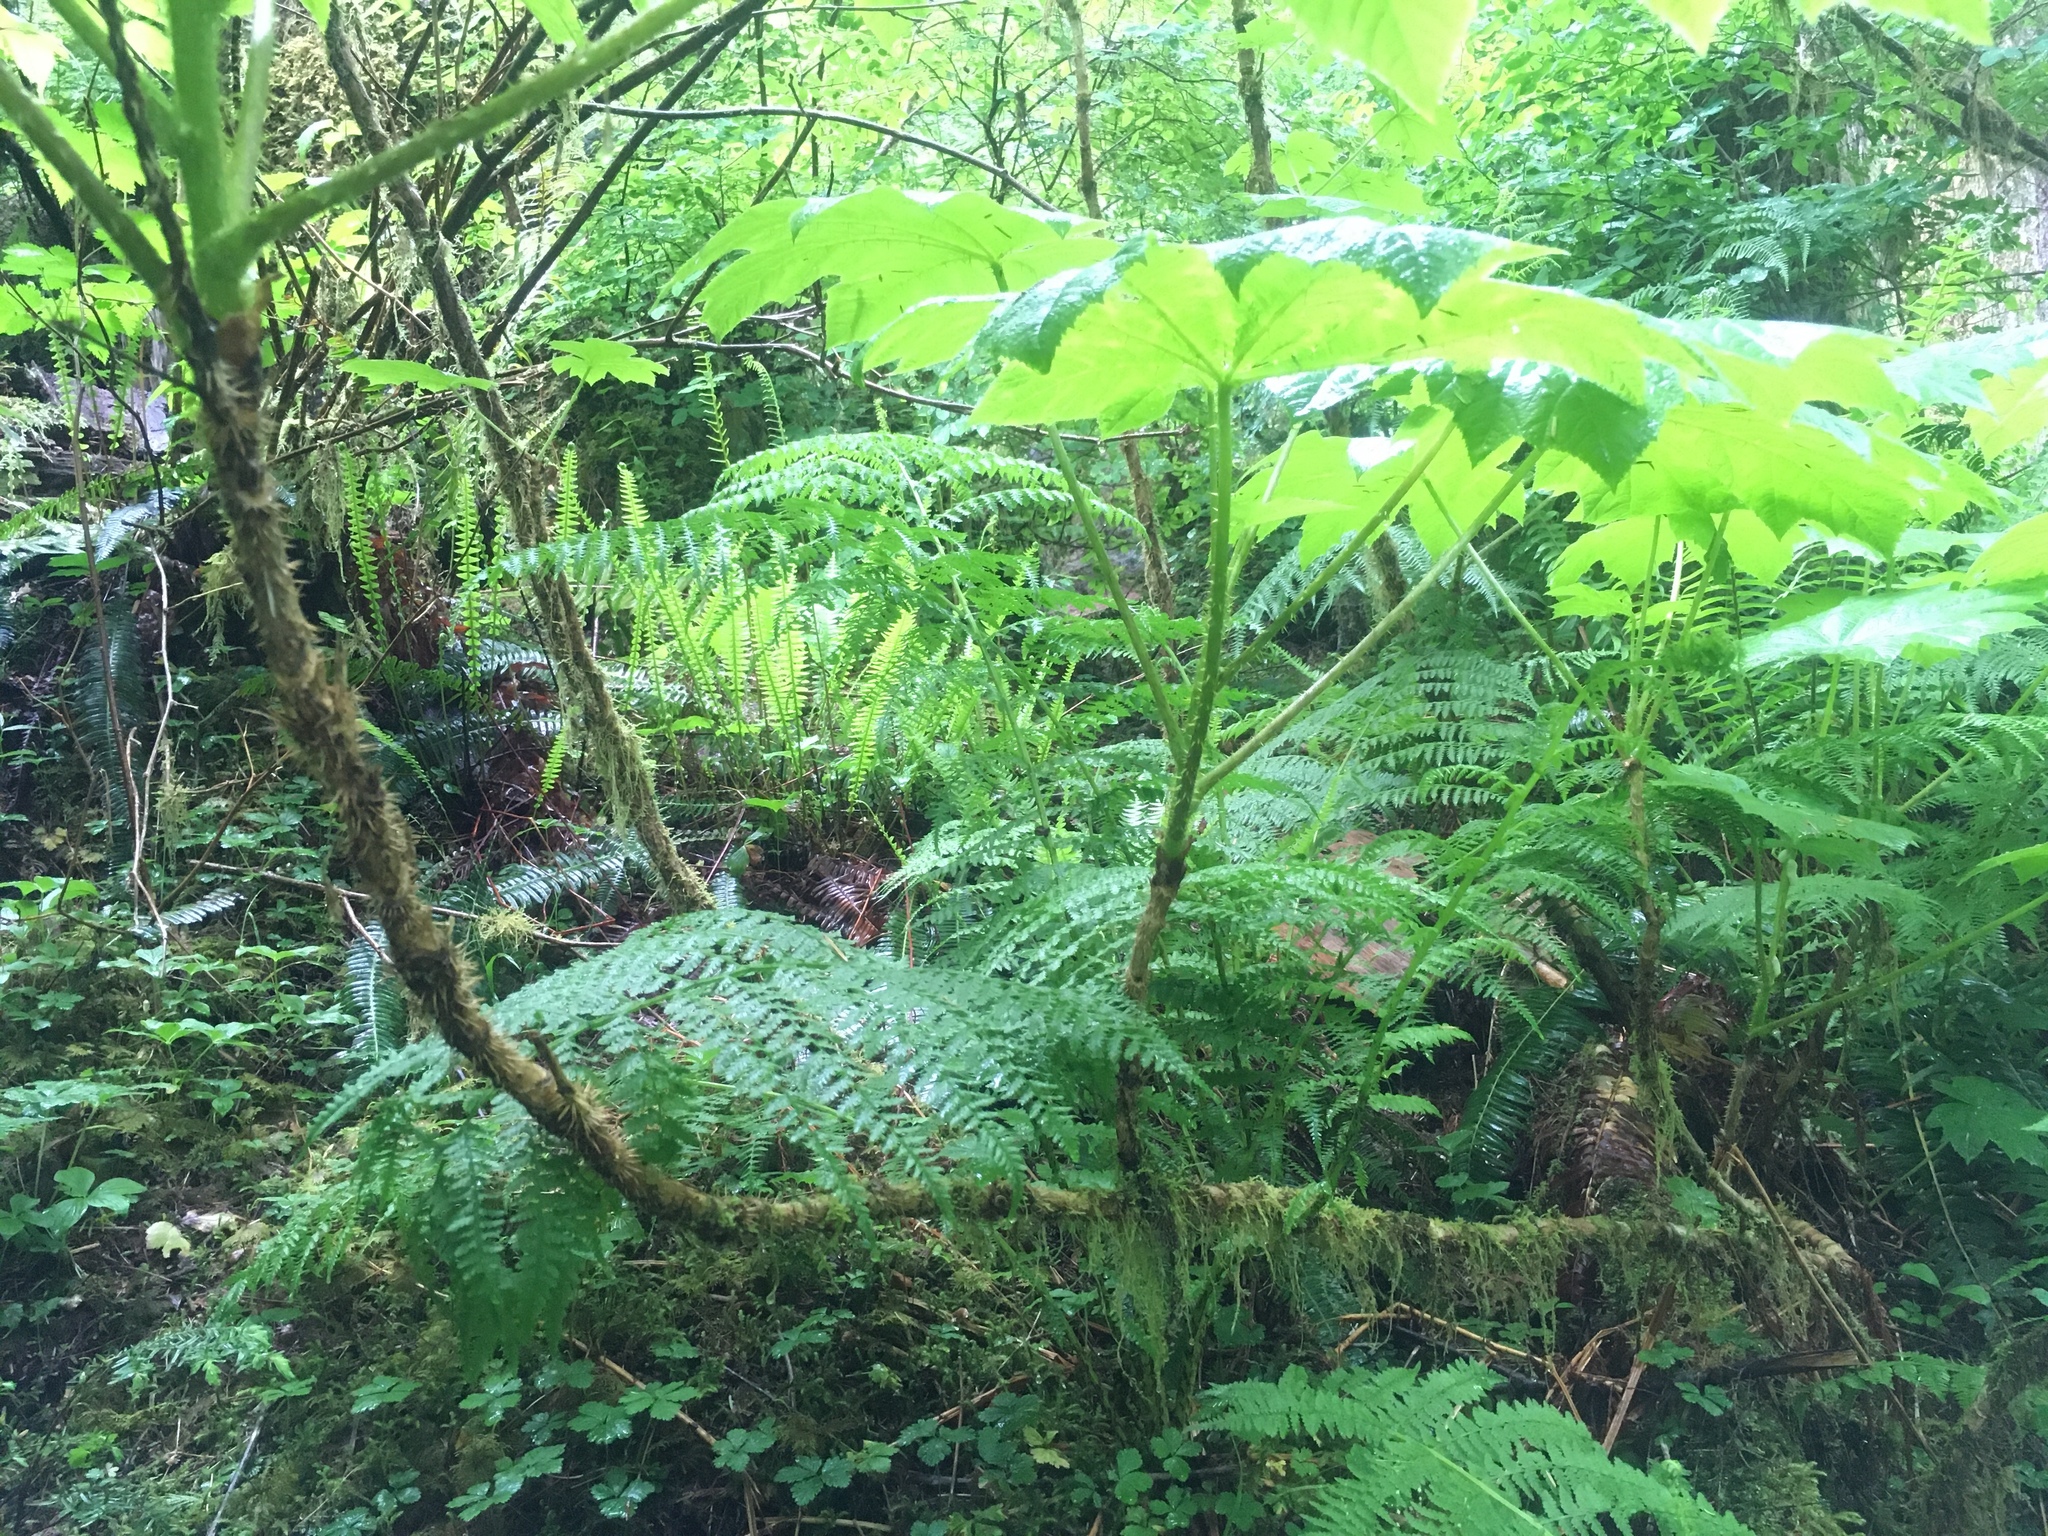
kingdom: Plantae
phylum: Tracheophyta
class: Magnoliopsida
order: Apiales
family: Araliaceae
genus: Oplopanax
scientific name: Oplopanax horridus
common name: Devil's walking-stick
